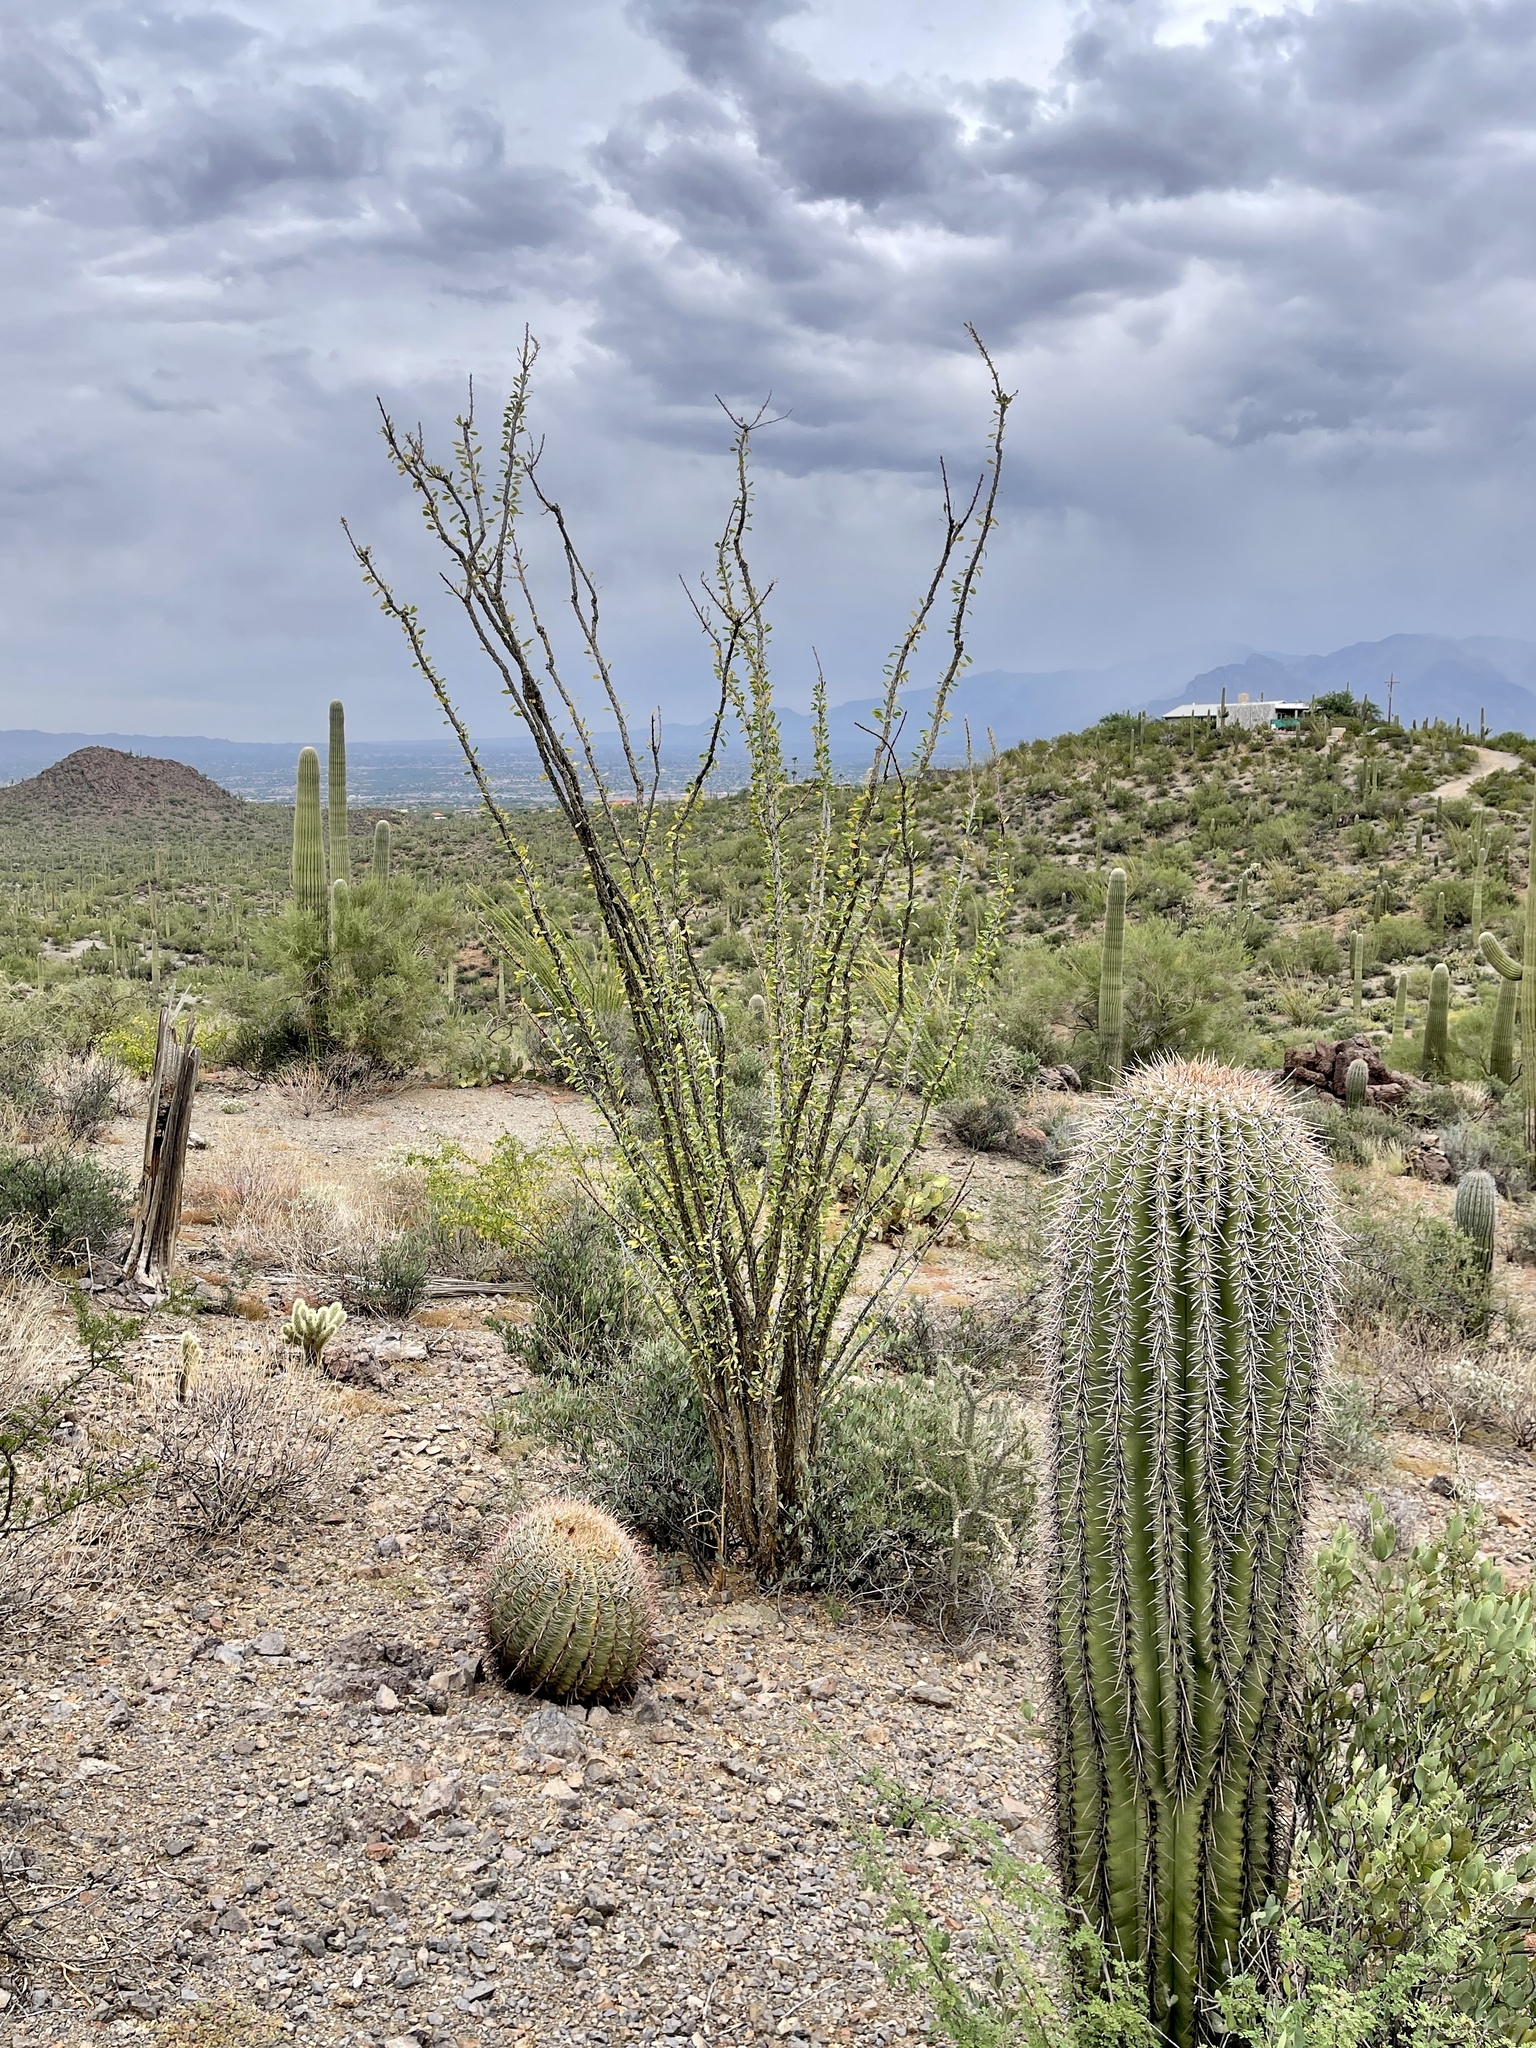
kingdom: Plantae
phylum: Tracheophyta
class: Magnoliopsida
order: Ericales
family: Fouquieriaceae
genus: Fouquieria
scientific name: Fouquieria splendens
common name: Vine-cactus
